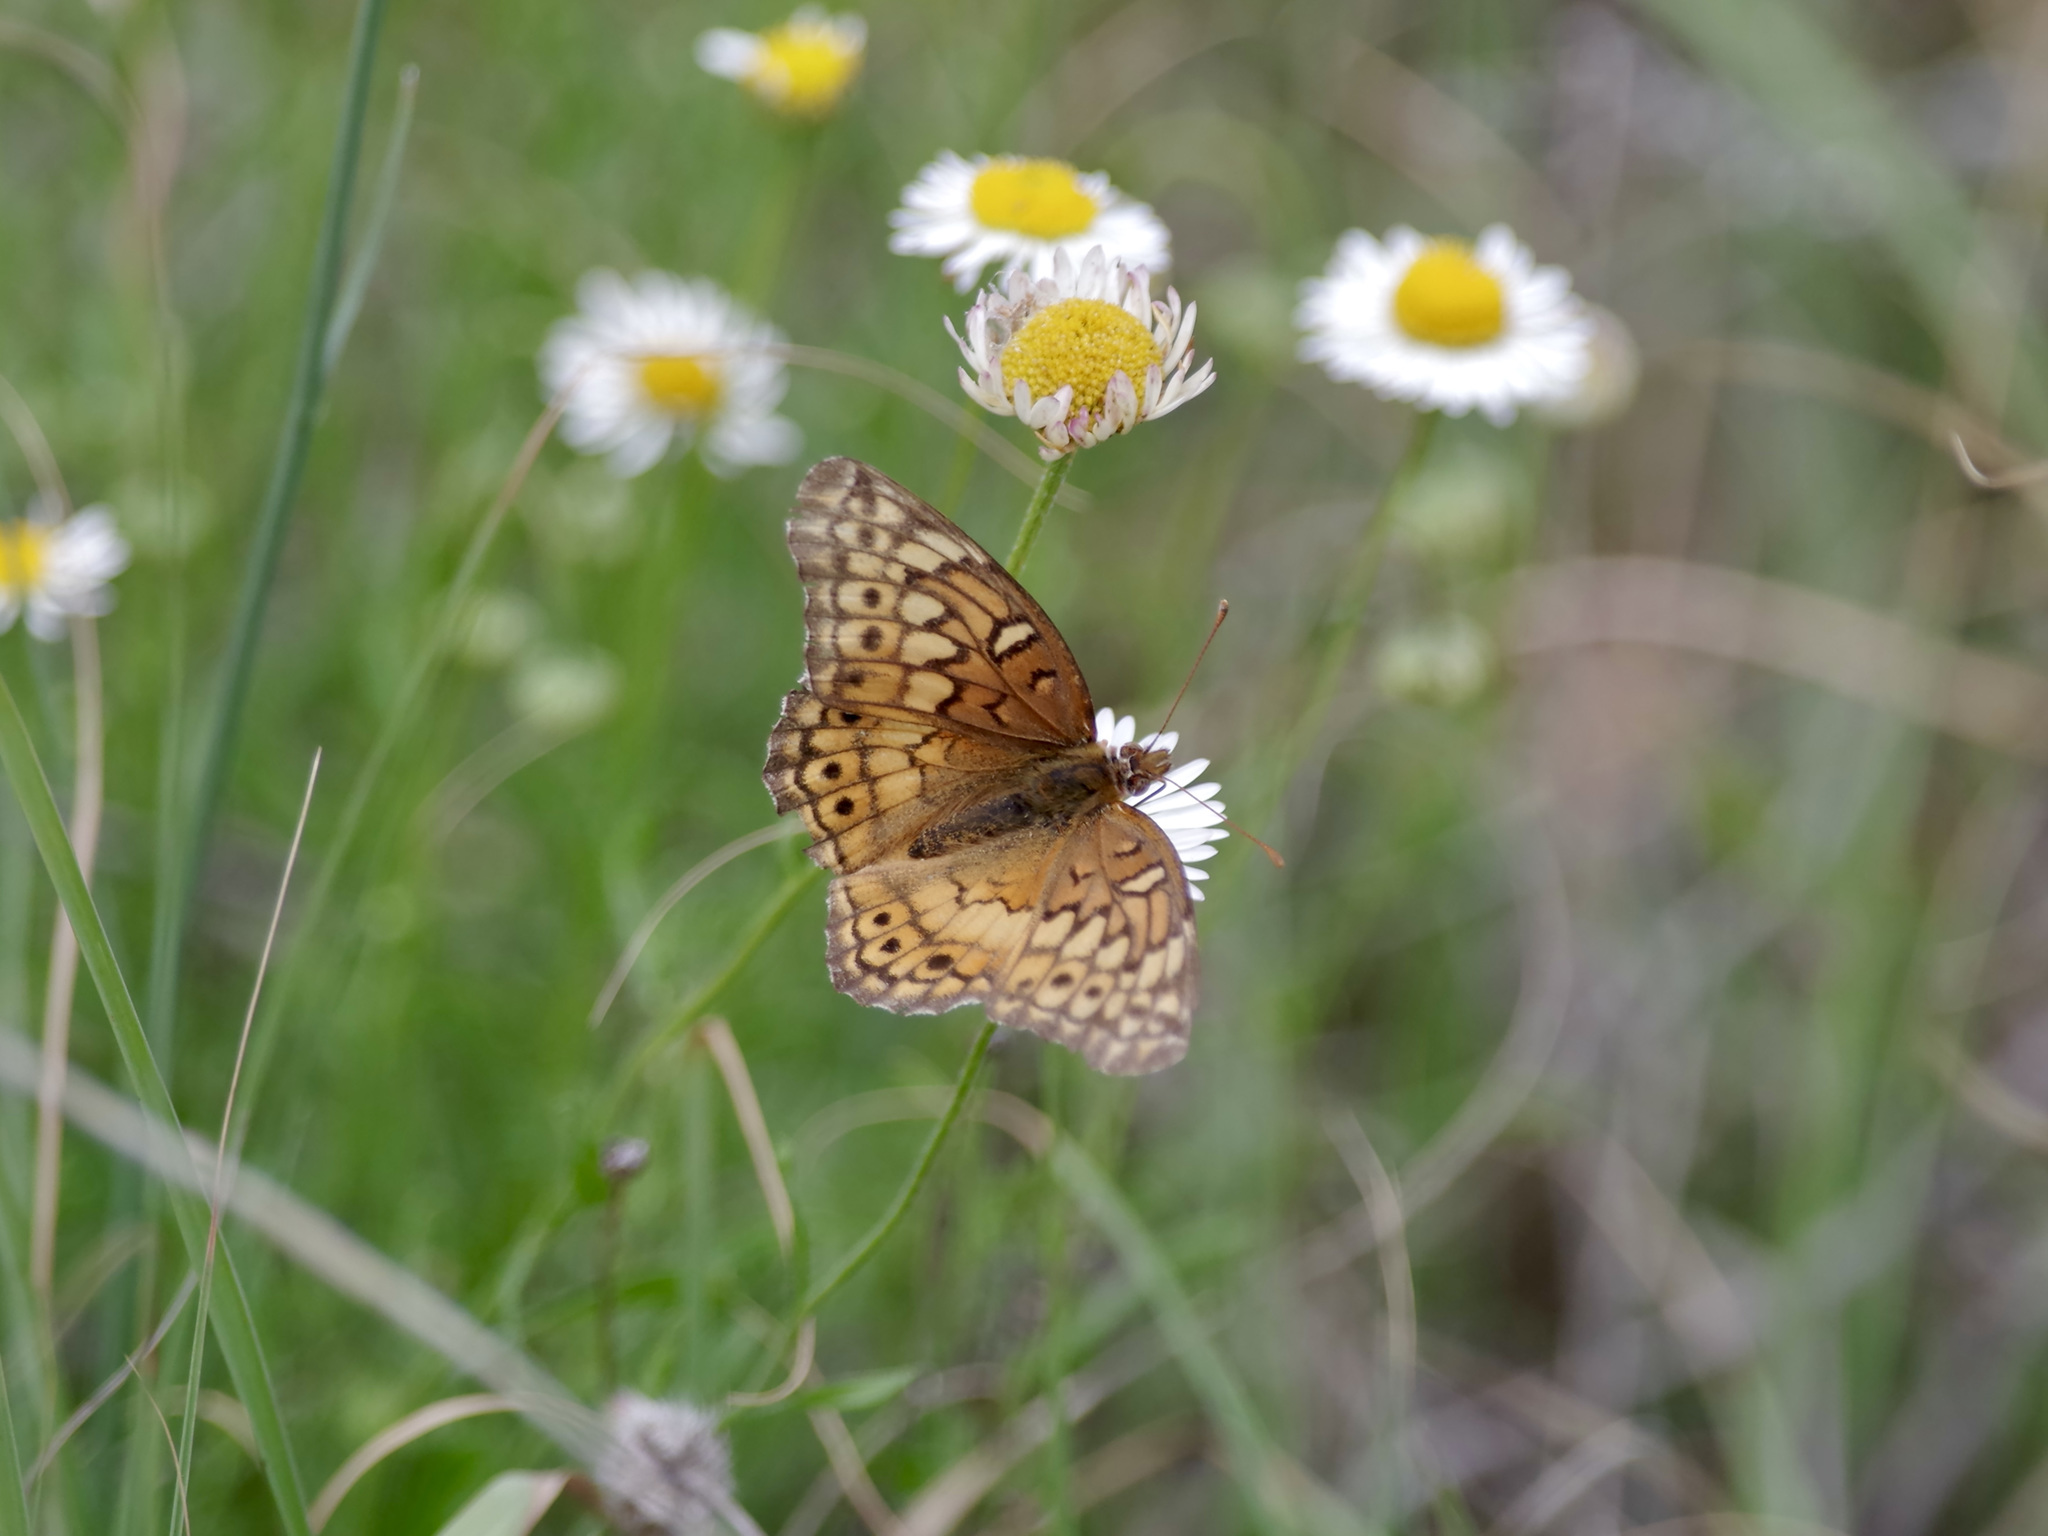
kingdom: Animalia
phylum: Arthropoda
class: Insecta
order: Lepidoptera
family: Nymphalidae
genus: Euptoieta
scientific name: Euptoieta claudia
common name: Variegated fritillary
